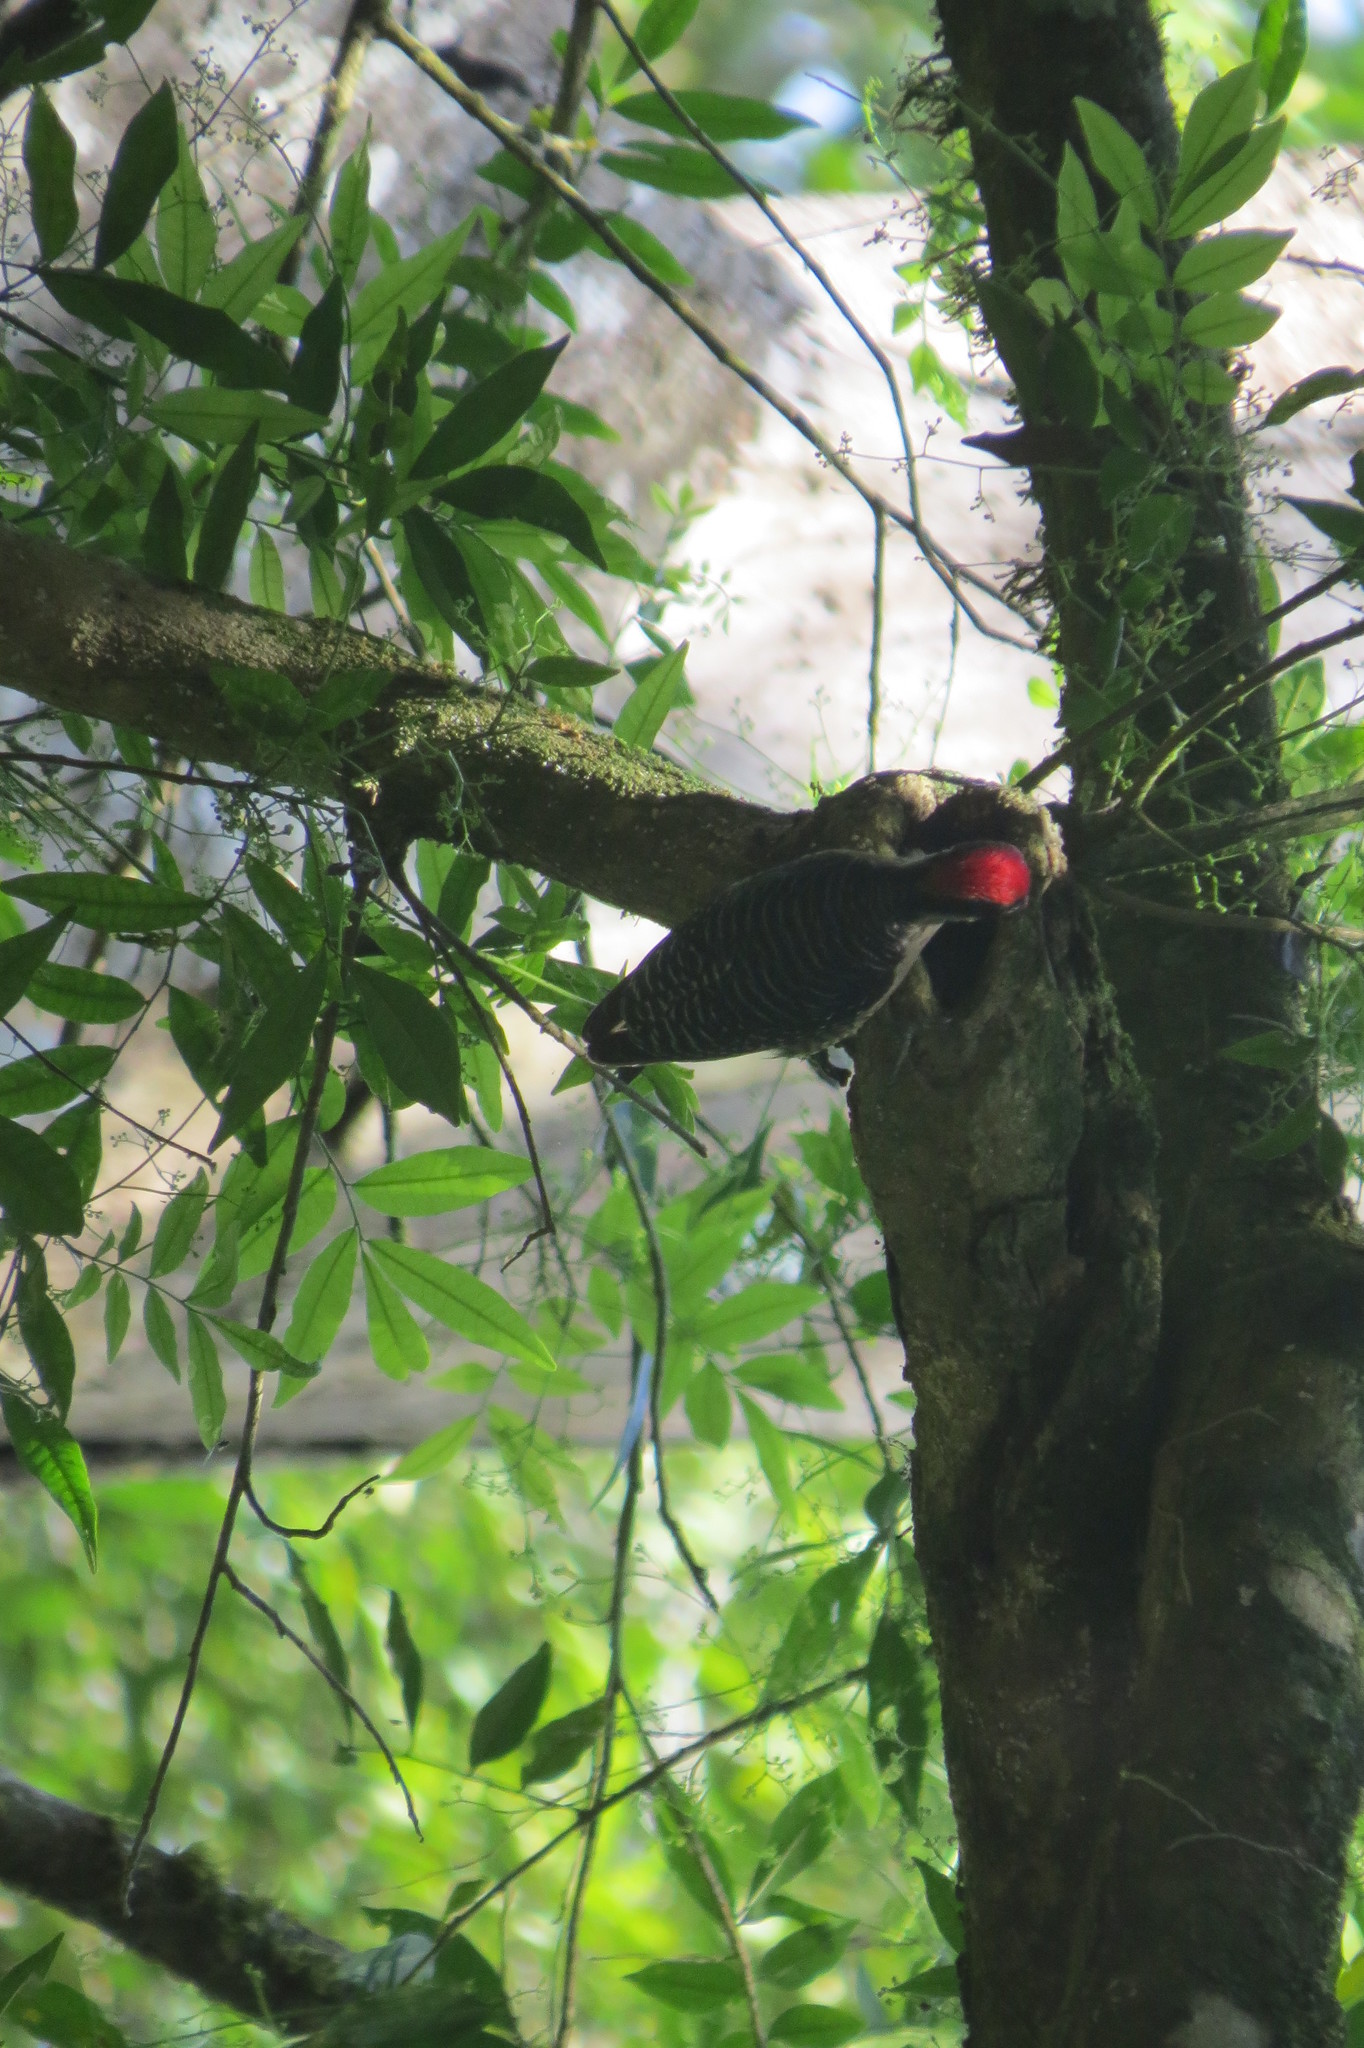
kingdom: Animalia
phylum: Chordata
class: Aves
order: Piciformes
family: Picidae
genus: Melanerpes
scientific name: Melanerpes pucherani
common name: Black-cheeked woodpecker
